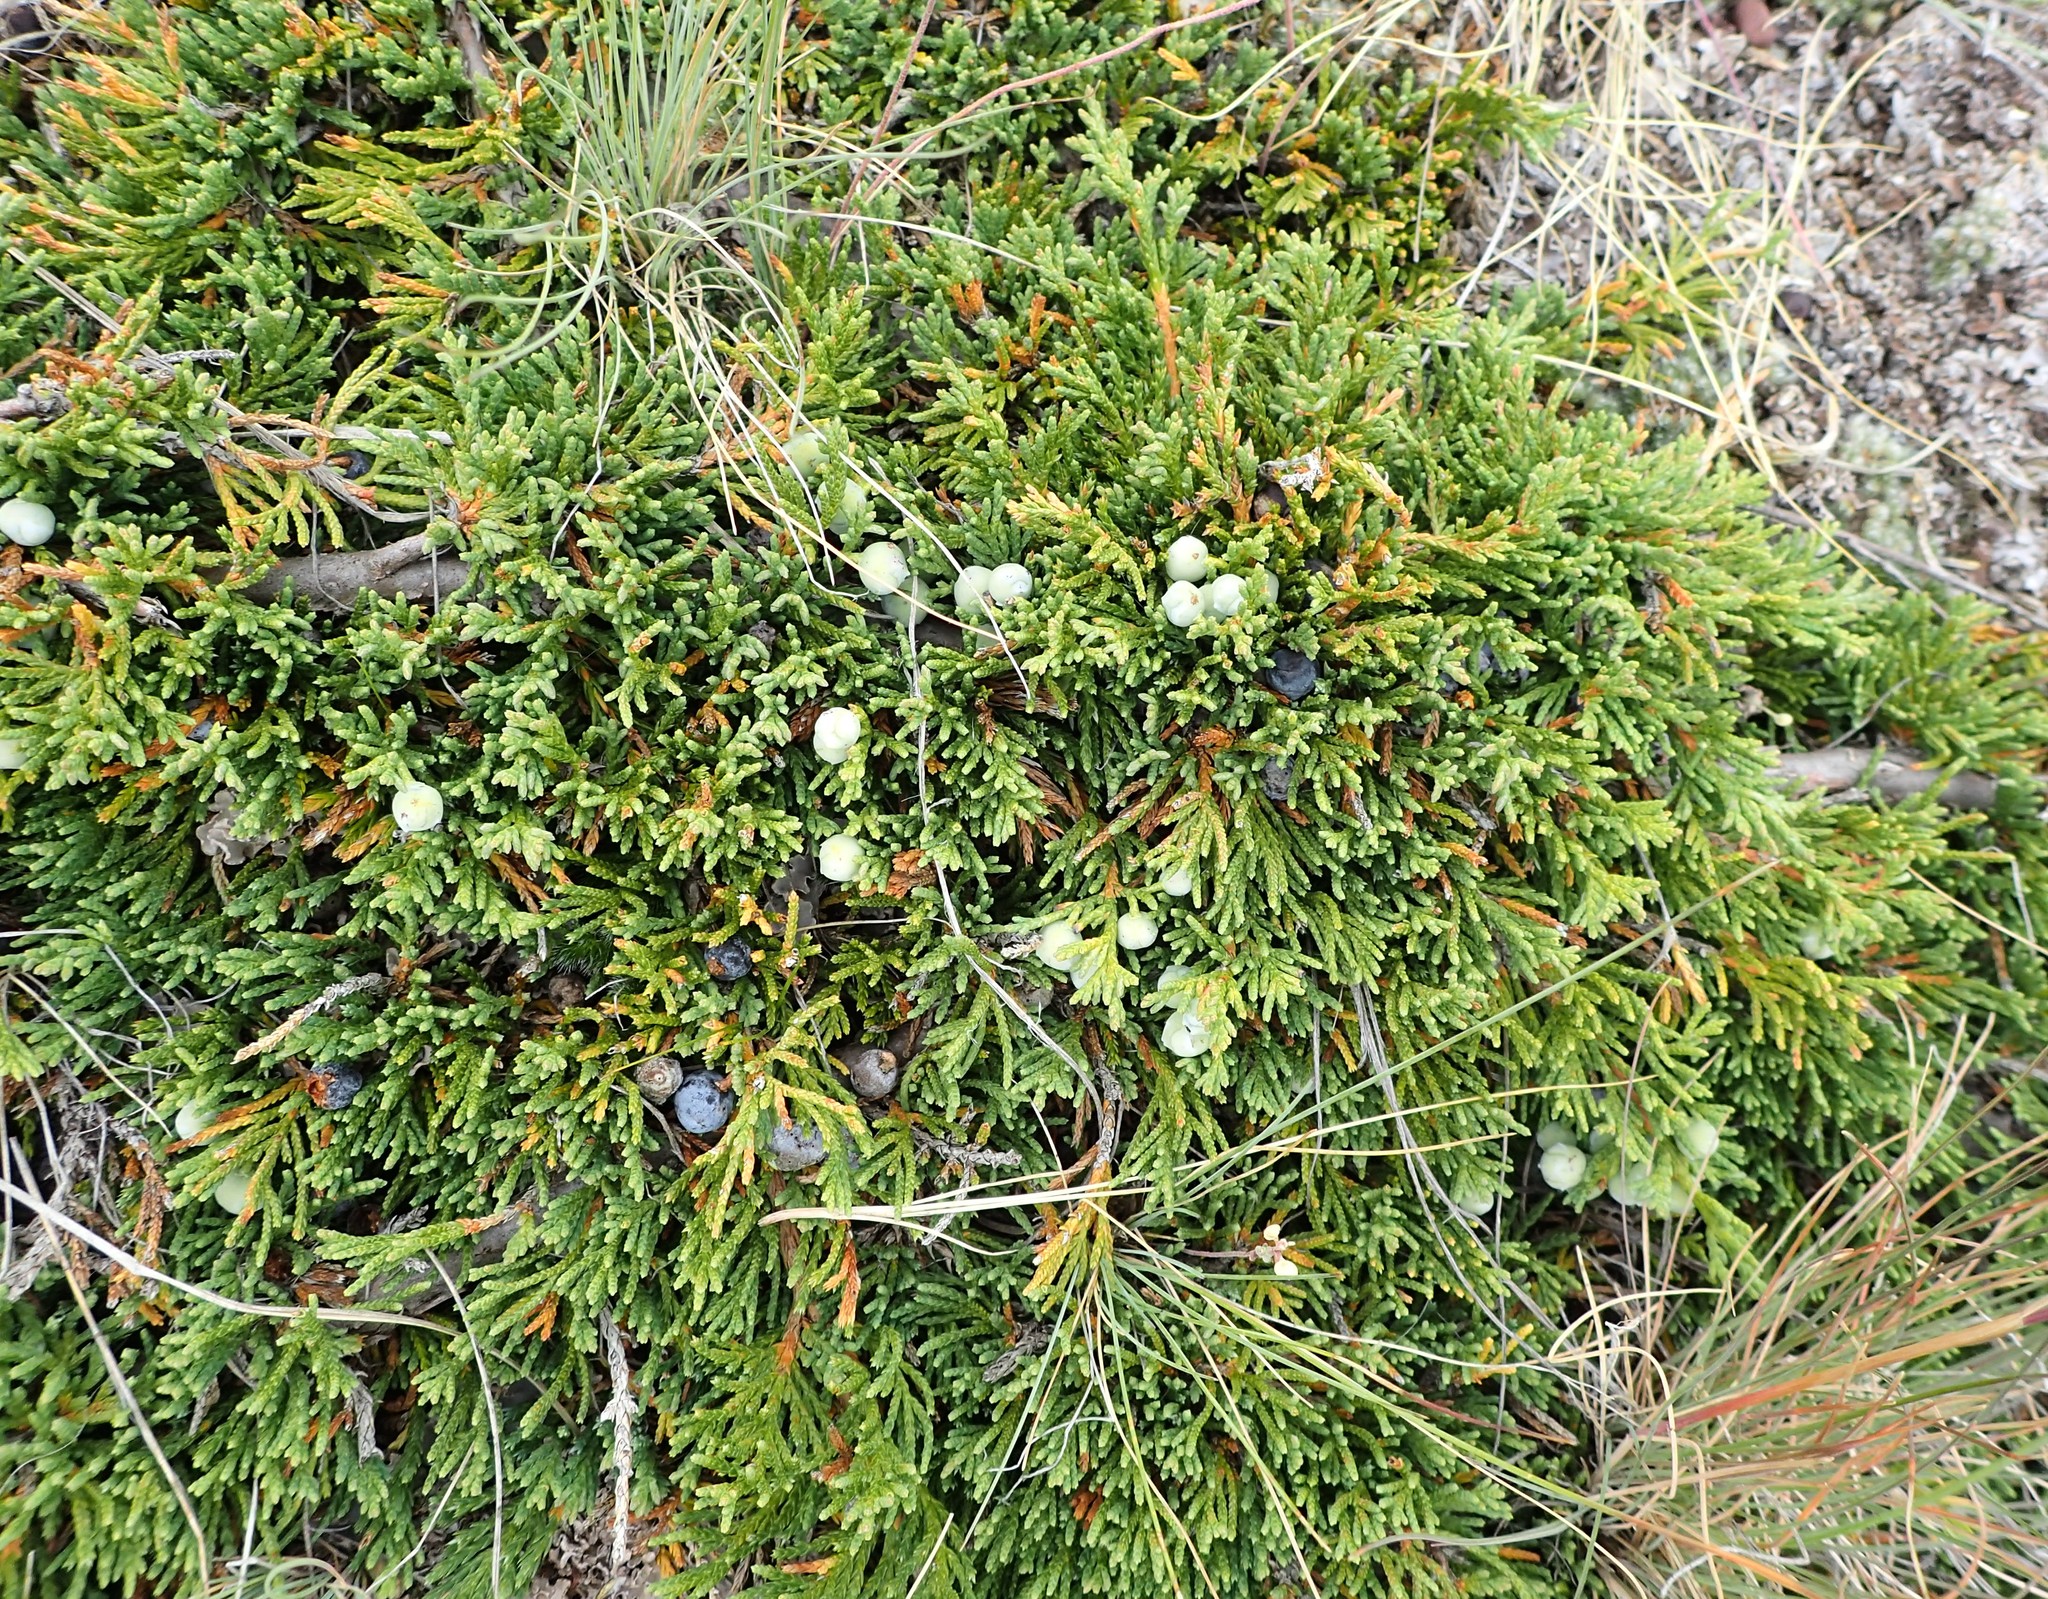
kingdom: Plantae
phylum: Tracheophyta
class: Pinopsida
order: Pinales
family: Cupressaceae
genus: Juniperus
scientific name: Juniperus horizontalis
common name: Creeping juniper
